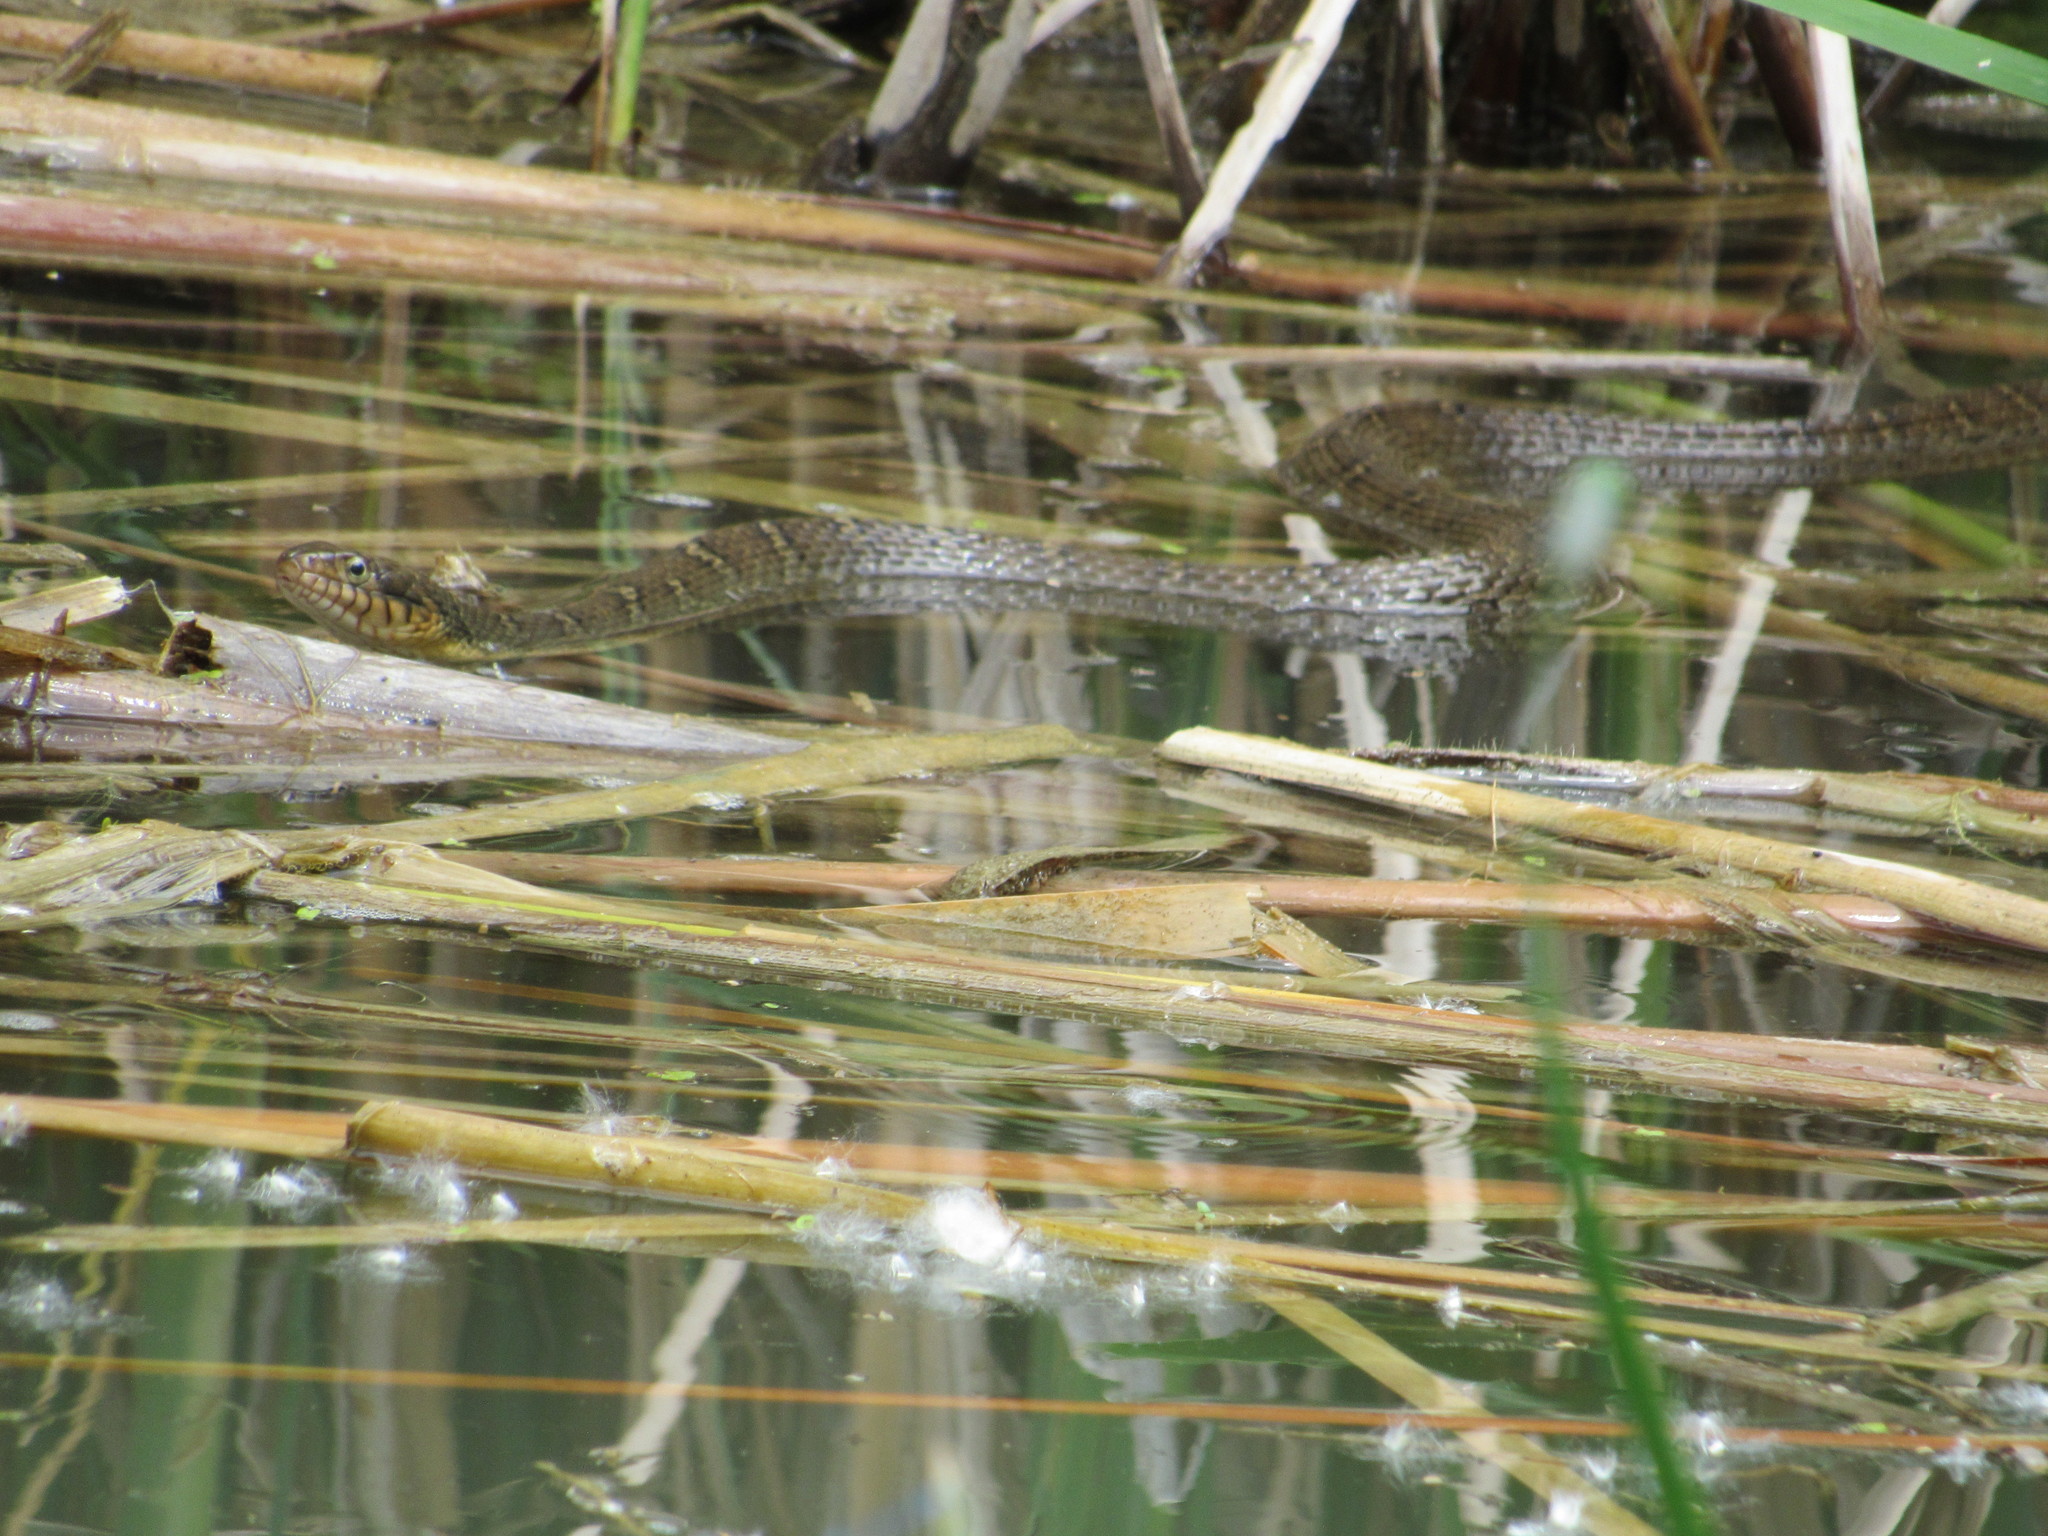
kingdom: Animalia
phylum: Chordata
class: Squamata
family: Colubridae
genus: Nerodia
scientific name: Nerodia erythrogaster
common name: Plainbelly water snake
